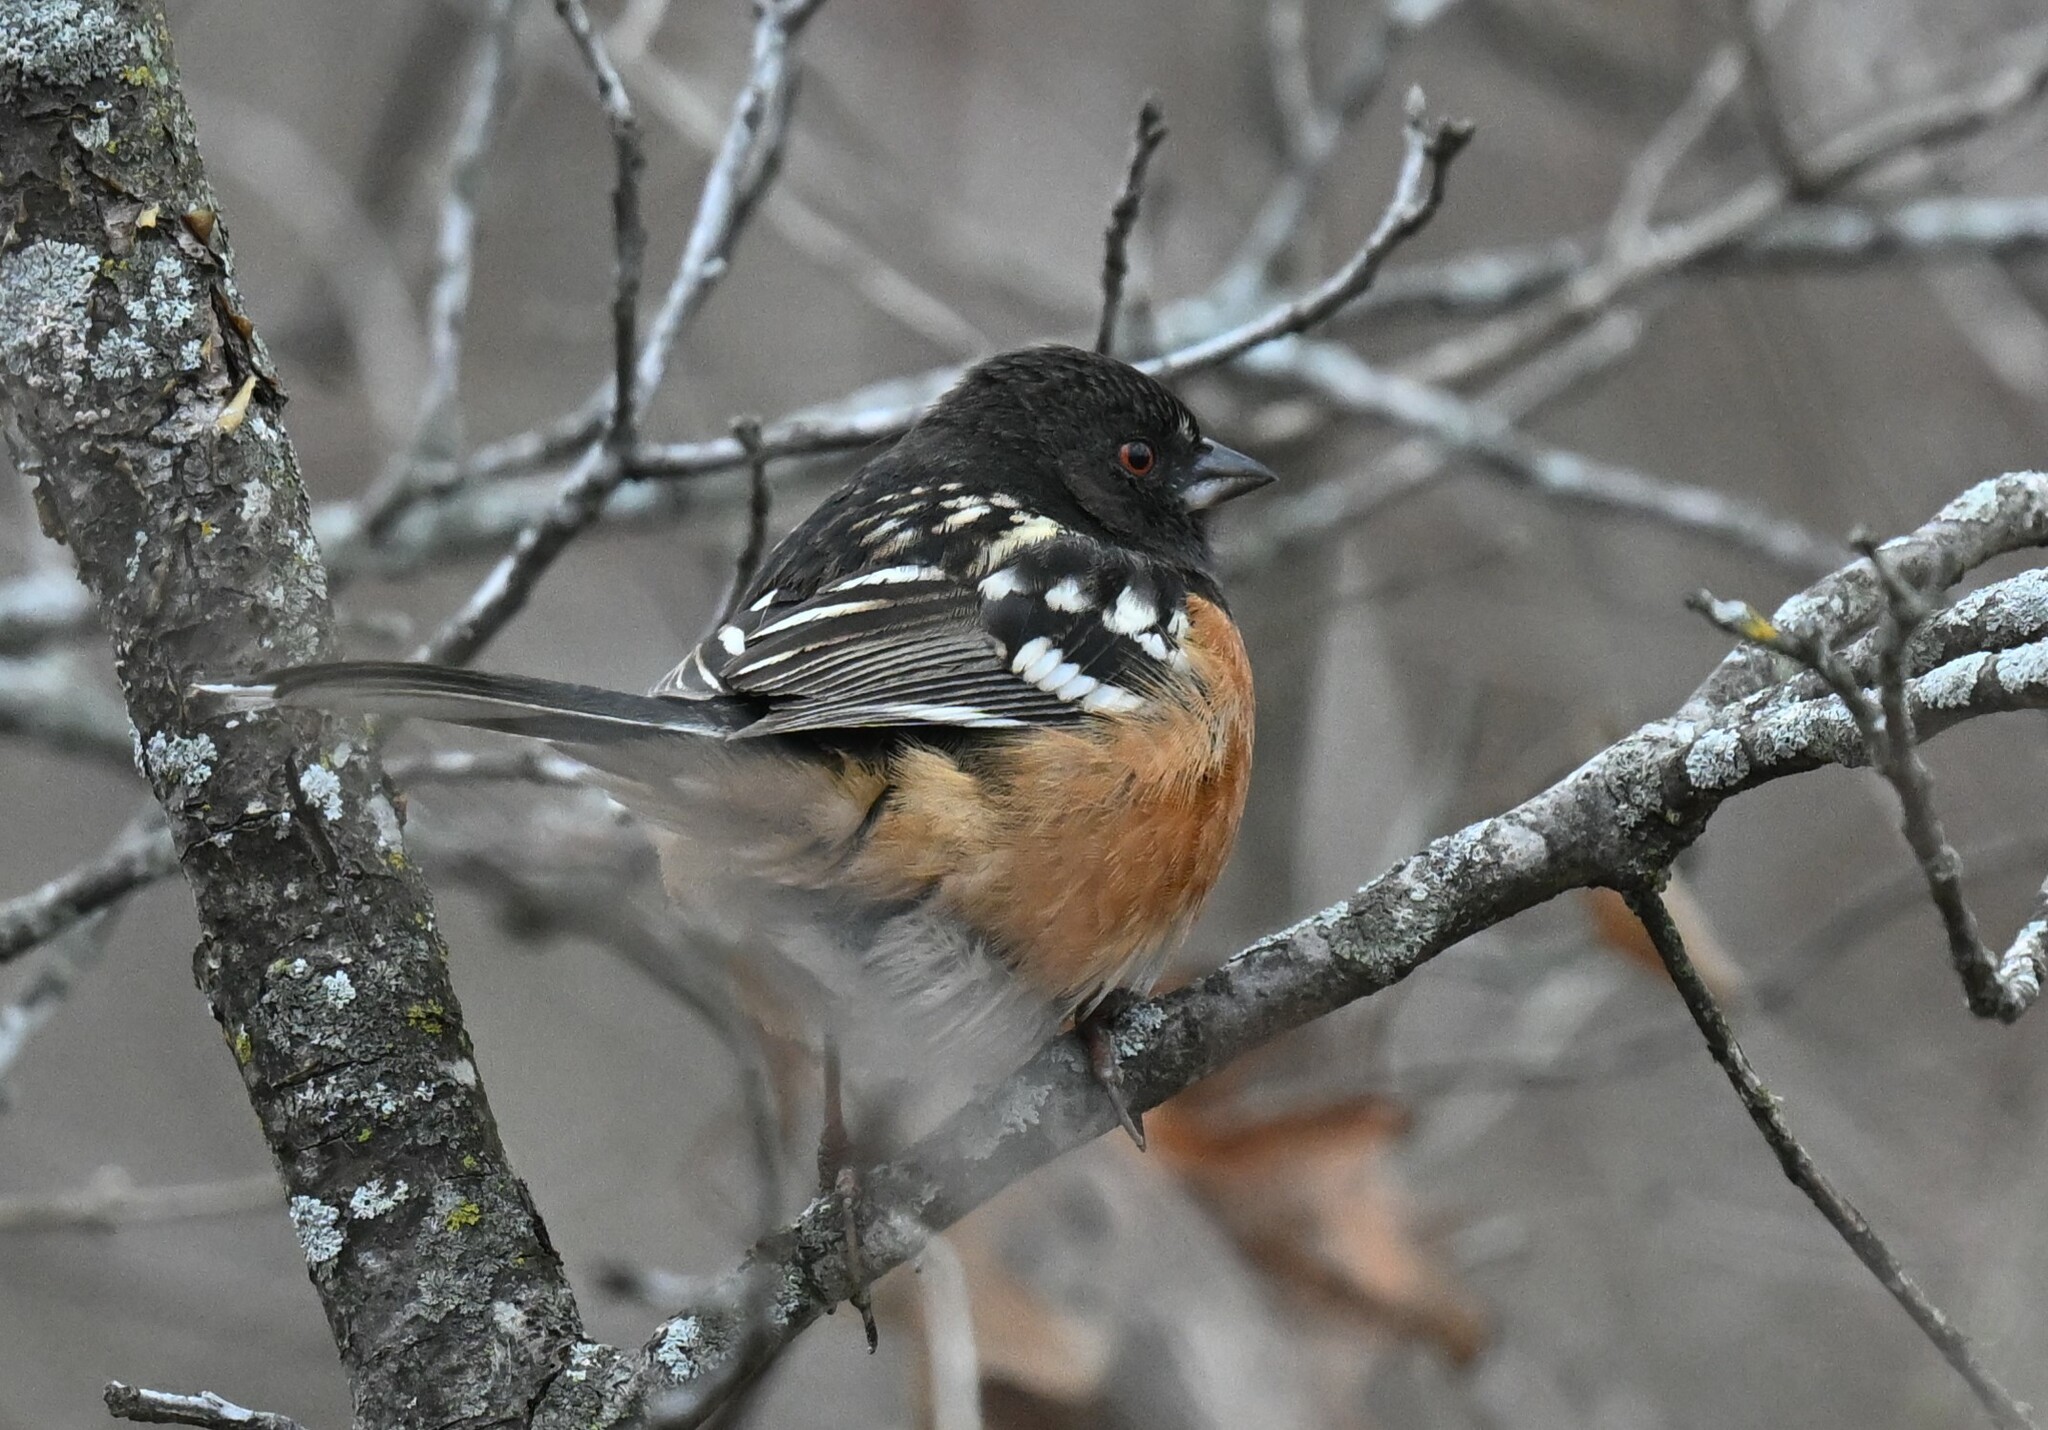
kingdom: Animalia
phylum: Chordata
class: Aves
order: Passeriformes
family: Passerellidae
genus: Pipilo
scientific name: Pipilo maculatus
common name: Spotted towhee
